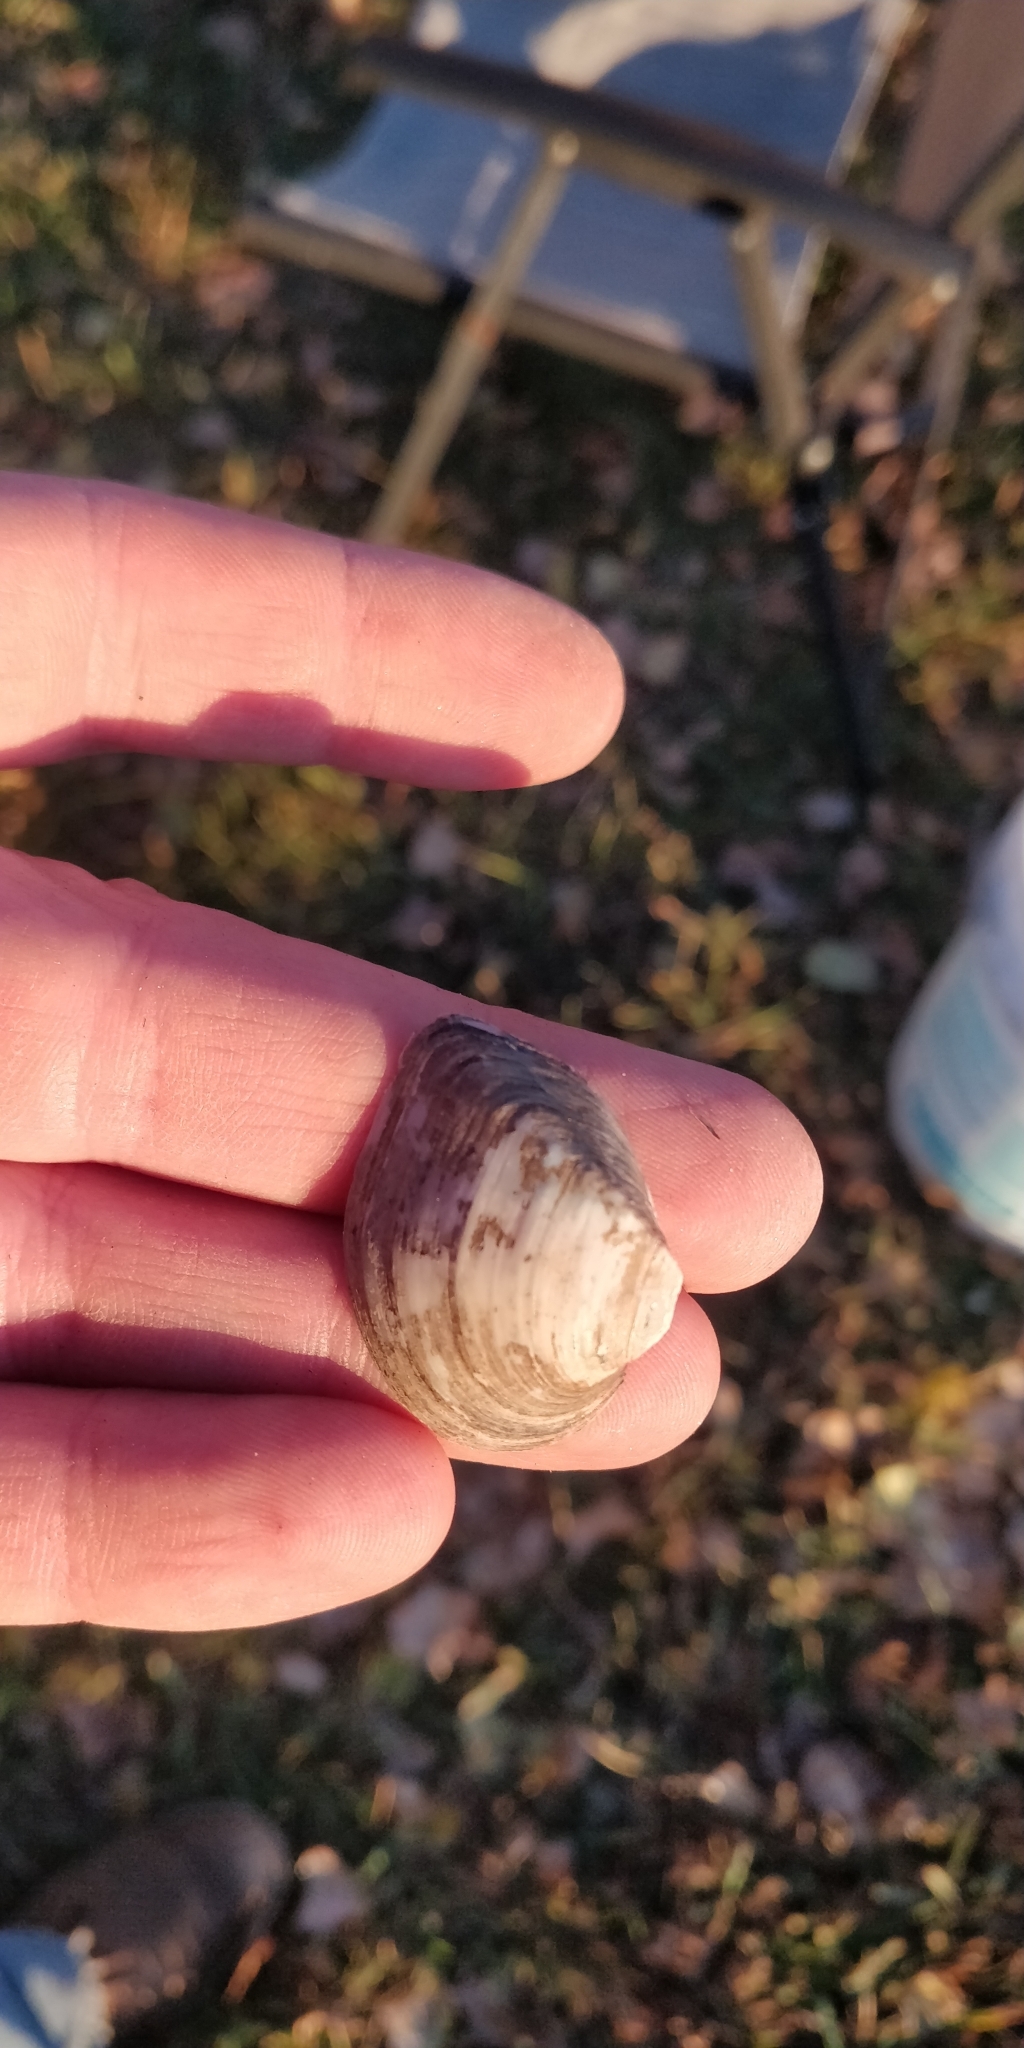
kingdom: Animalia
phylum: Mollusca
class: Bivalvia
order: Unionida
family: Unionidae
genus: Truncilla
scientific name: Truncilla truncata
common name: Deertoe
